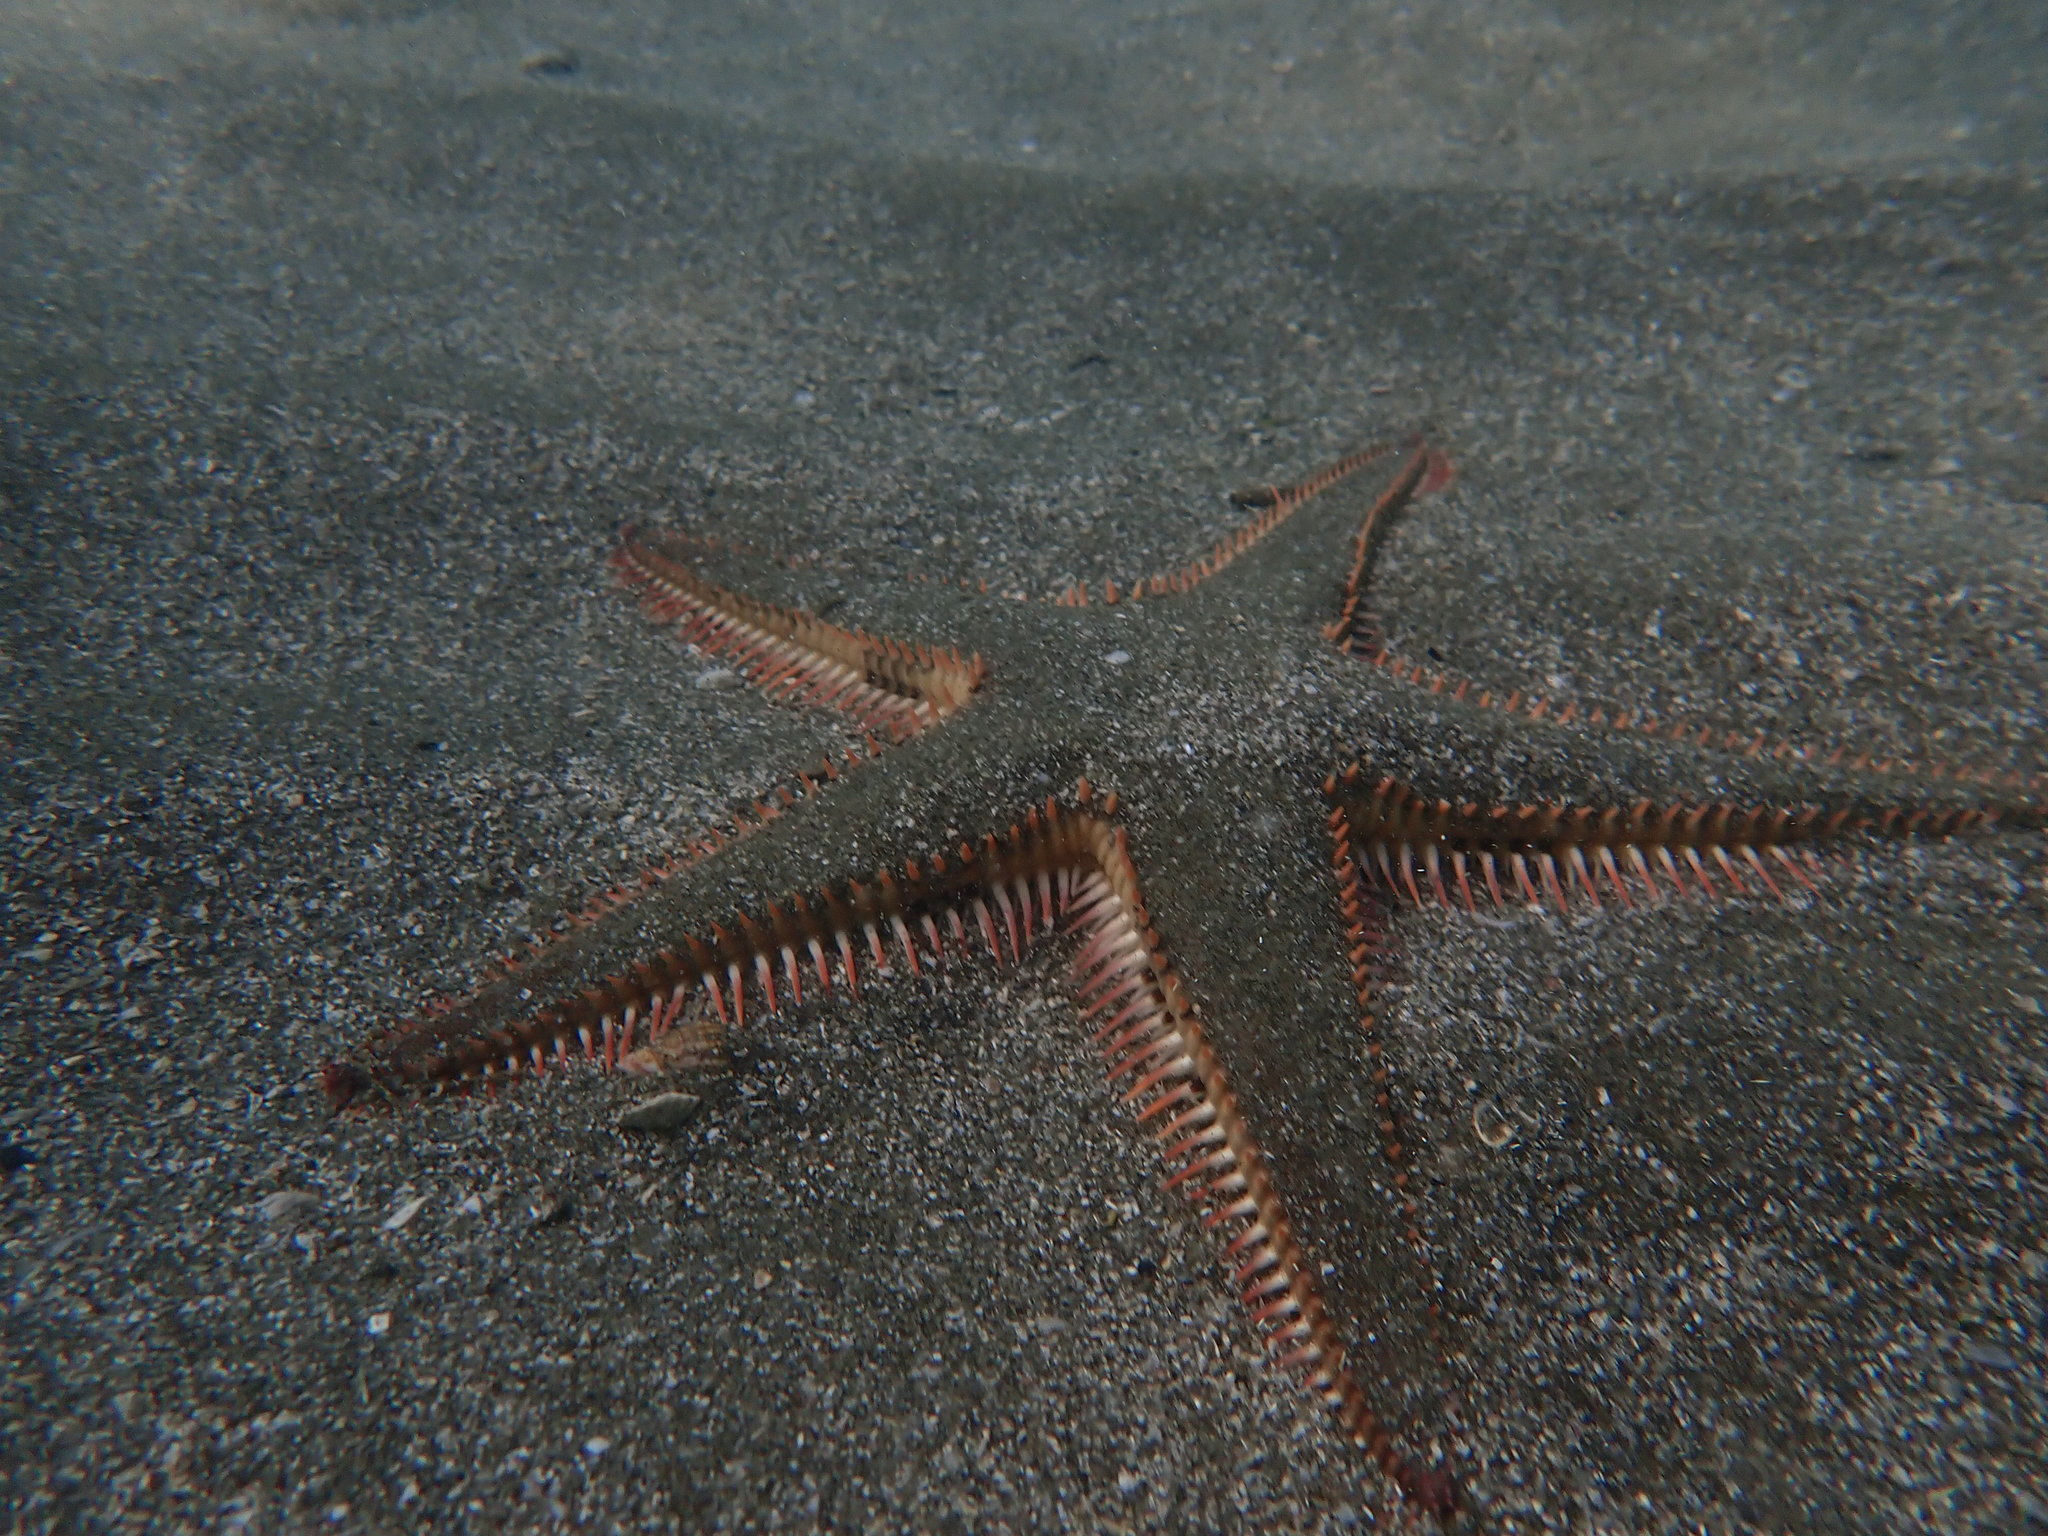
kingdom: Animalia
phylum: Echinodermata
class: Asteroidea
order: Paxillosida
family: Astropectinidae
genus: Astropecten
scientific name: Astropecten polyacanthus
